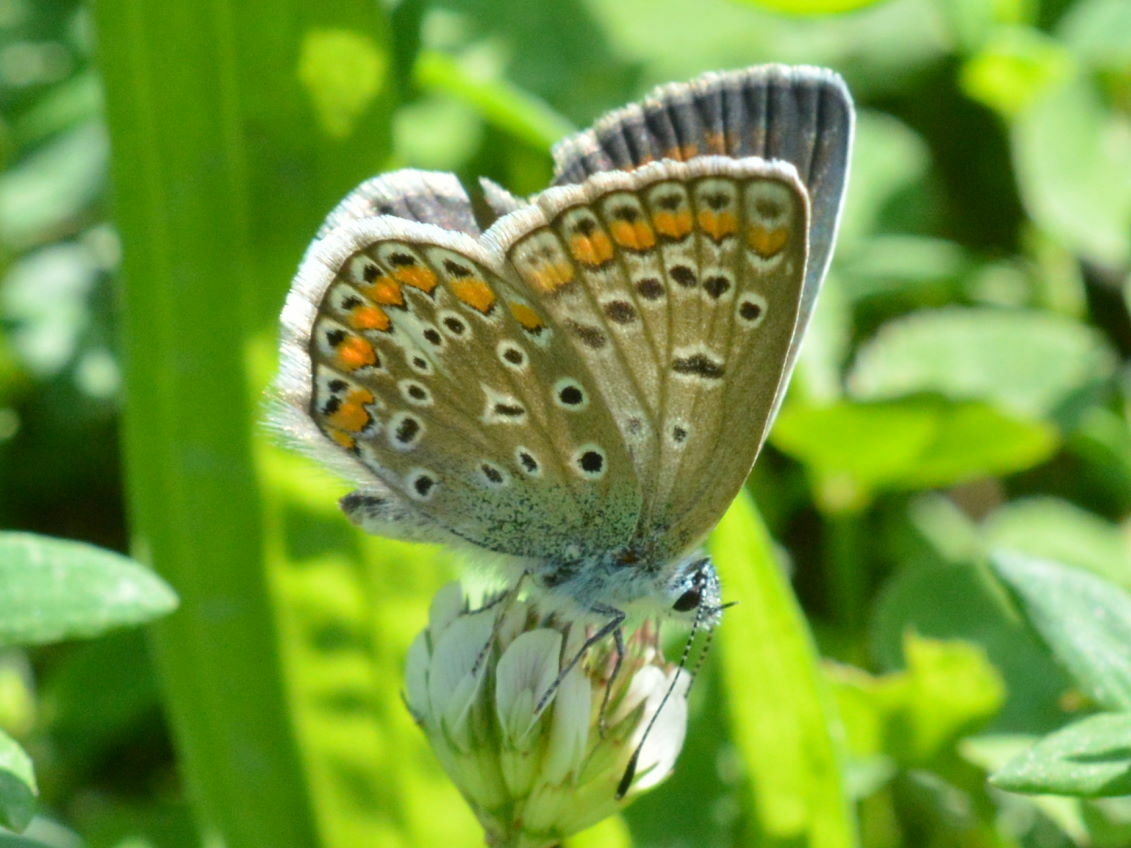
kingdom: Animalia
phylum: Arthropoda
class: Insecta
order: Lepidoptera
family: Lycaenidae
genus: Polyommatus
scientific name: Polyommatus icarus
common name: Common blue
